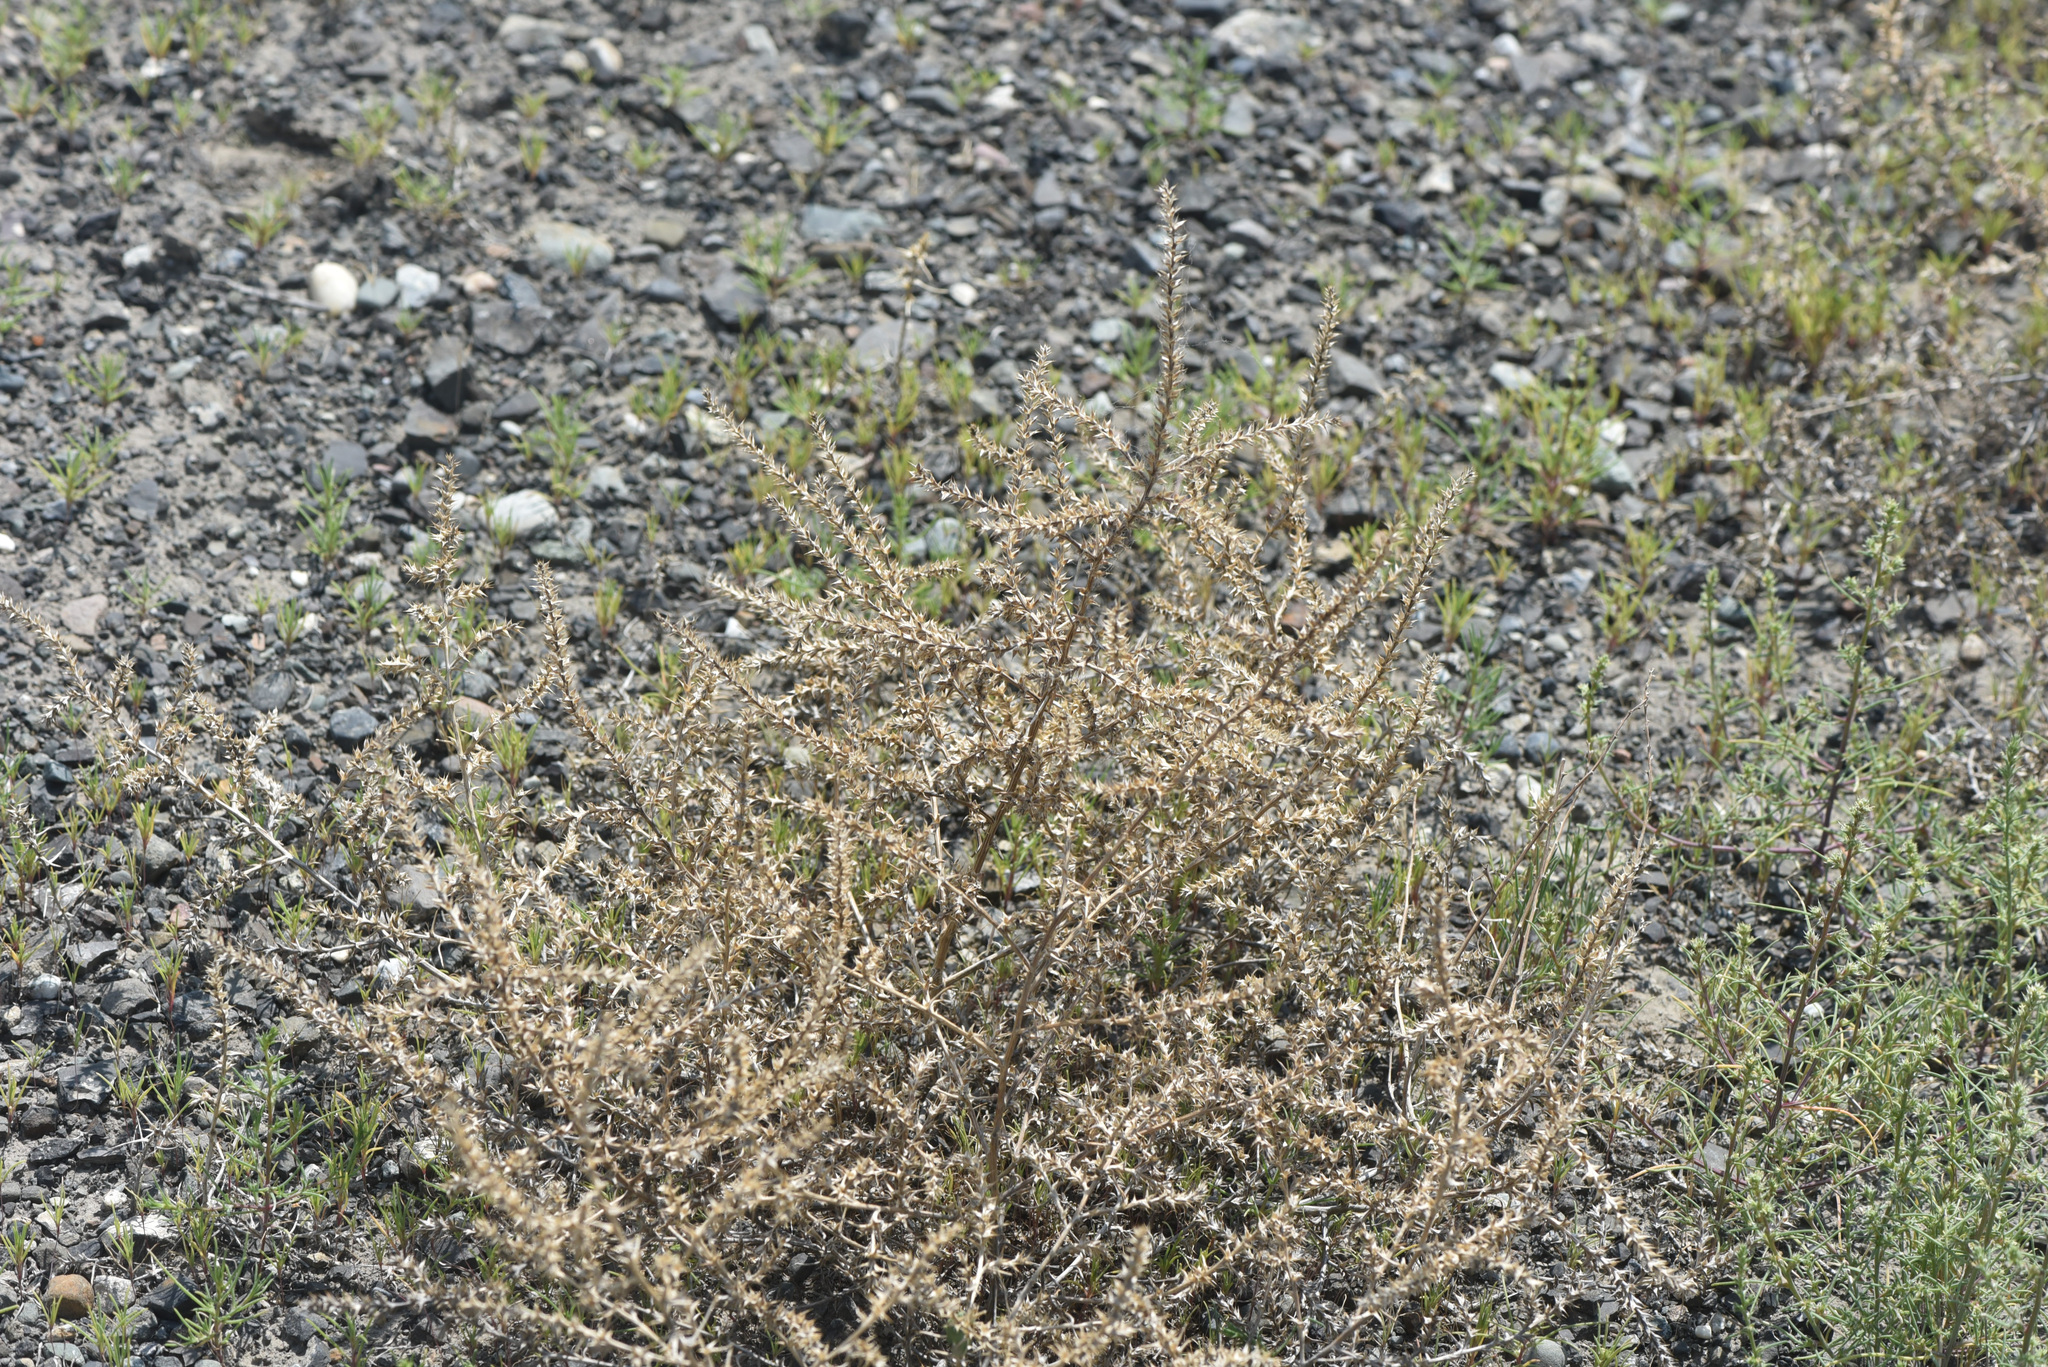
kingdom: Plantae
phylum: Tracheophyta
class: Magnoliopsida
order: Caryophyllales
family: Amaranthaceae
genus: Salsola
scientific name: Salsola tragus
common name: Prickly russian thistle
